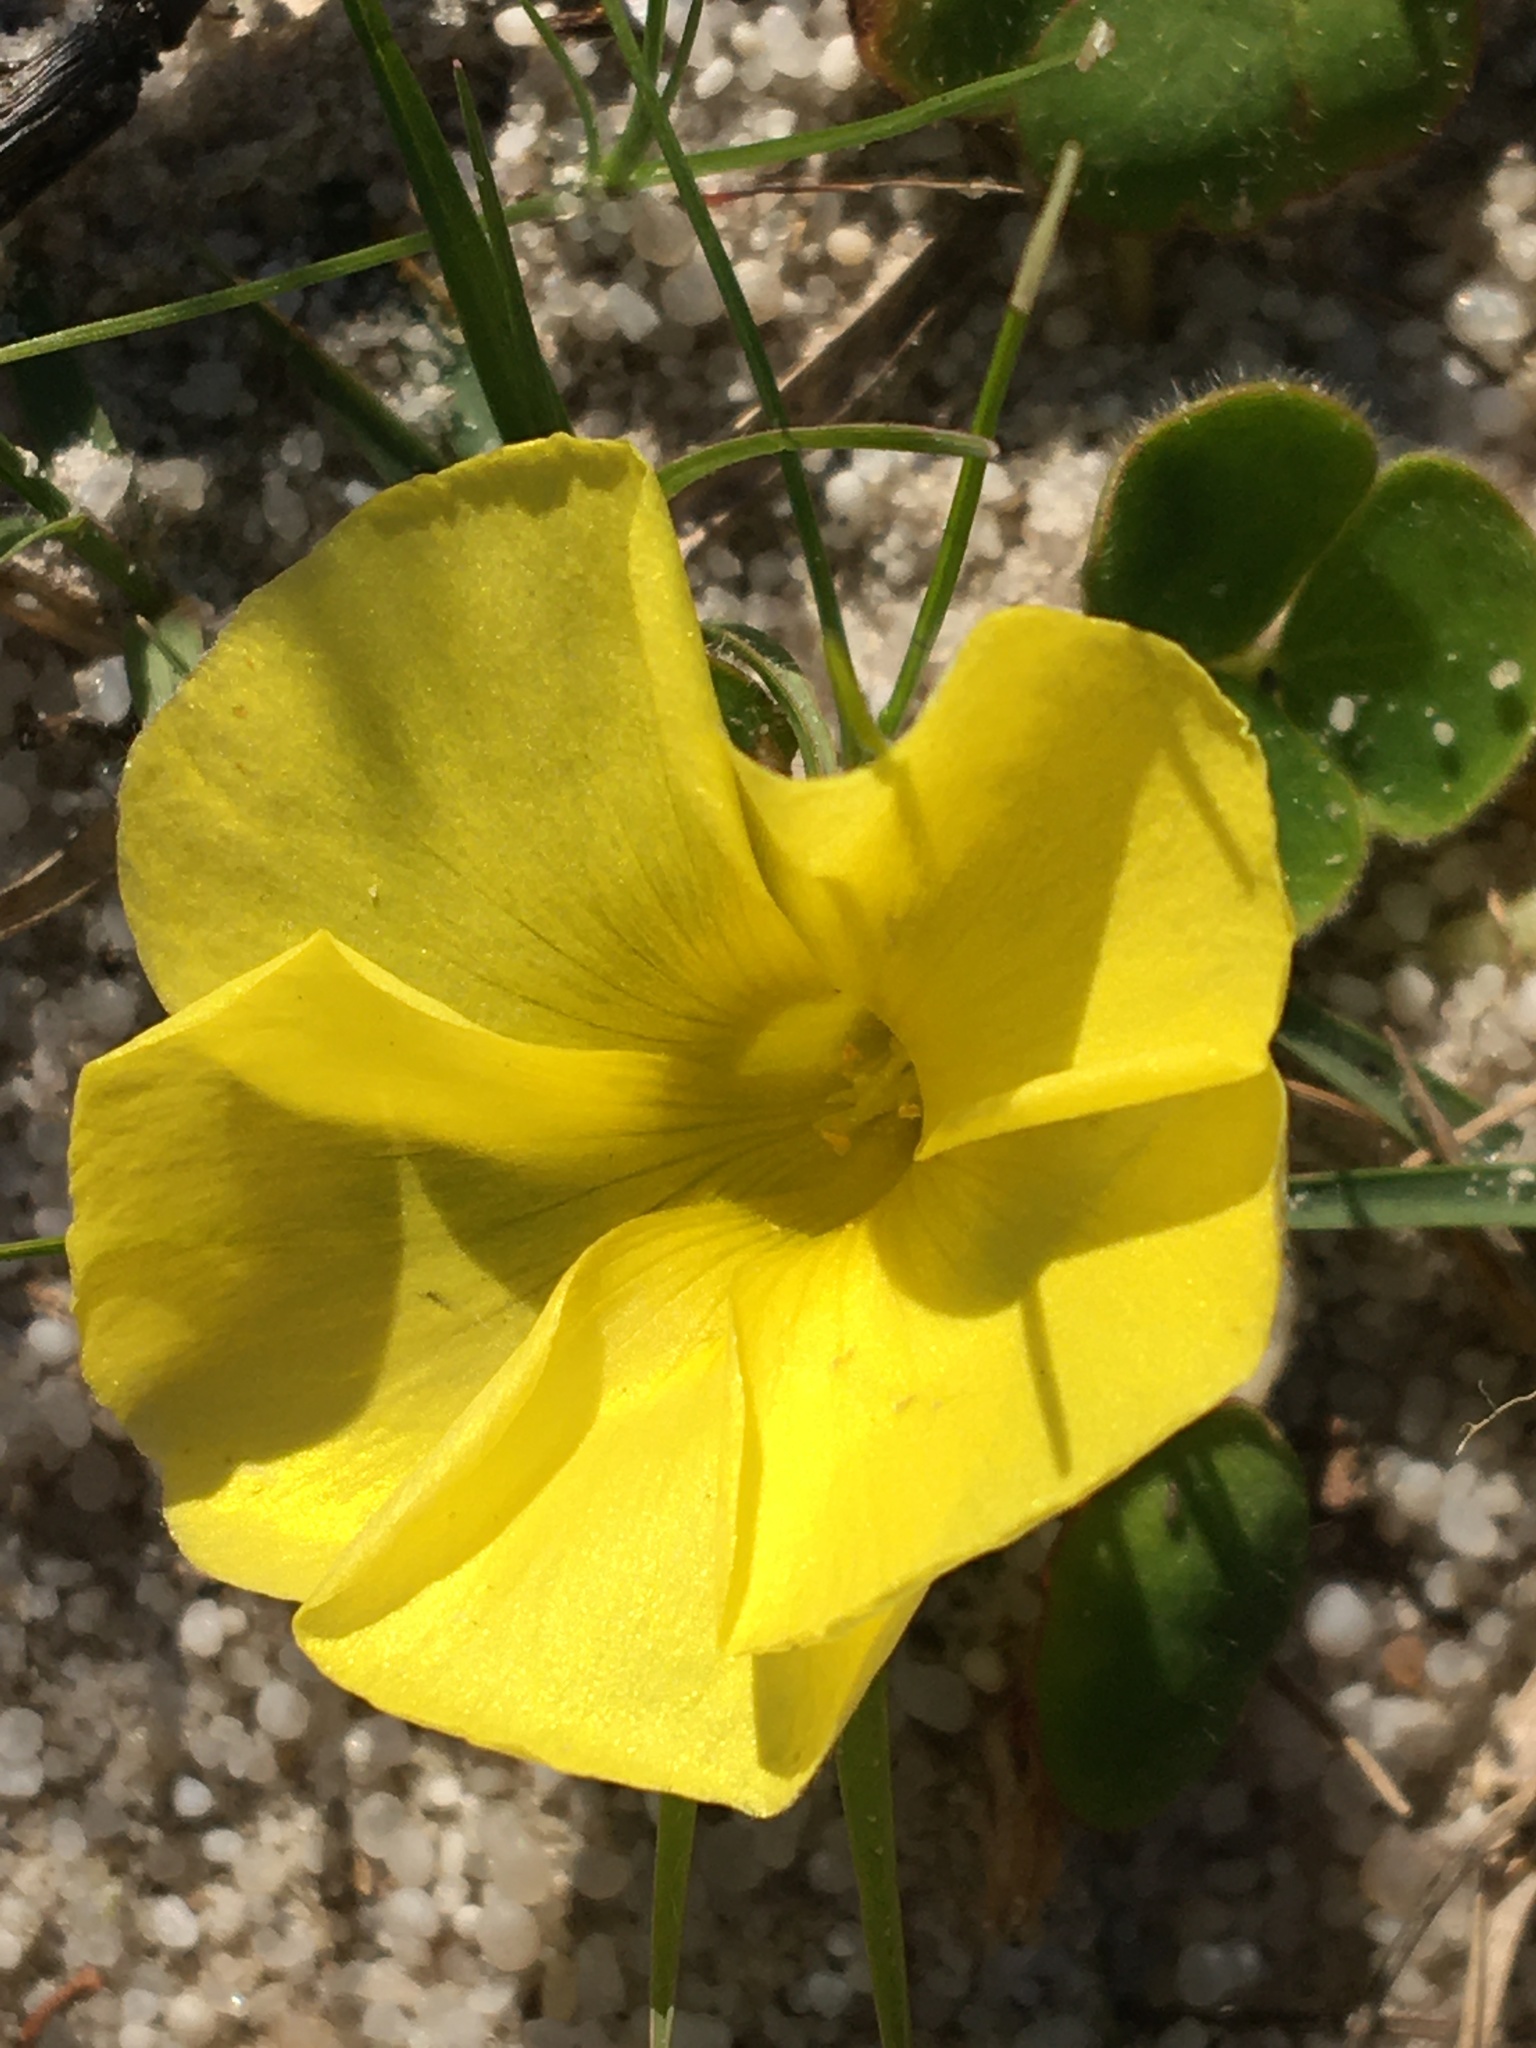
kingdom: Plantae
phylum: Tracheophyta
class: Magnoliopsida
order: Oxalidales
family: Oxalidaceae
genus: Oxalis
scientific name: Oxalis luteola
